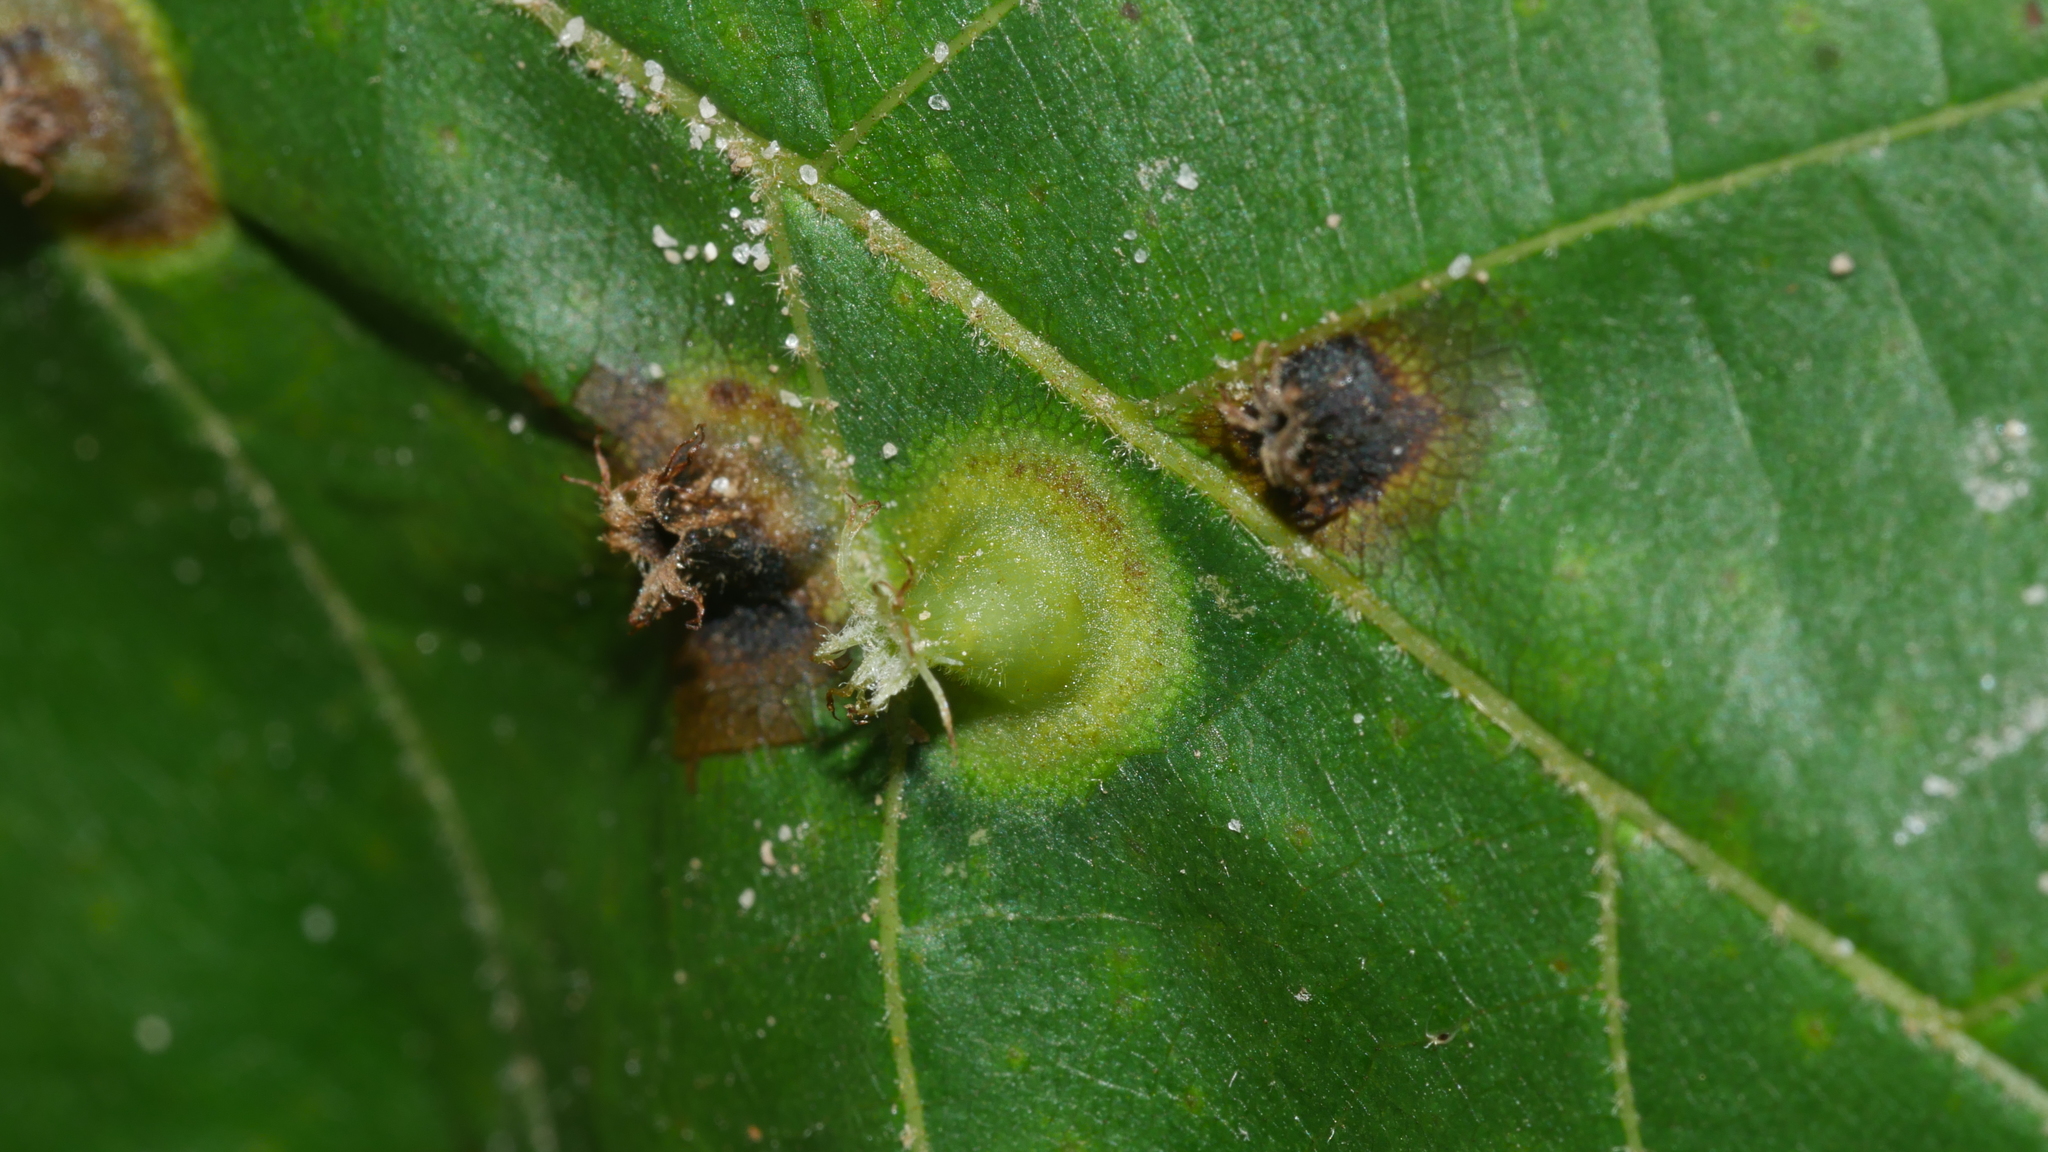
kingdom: Animalia
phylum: Arthropoda
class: Insecta
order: Hemiptera
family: Phylloxeridae
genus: Phylloxera
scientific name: Phylloxera caryaefoliae
